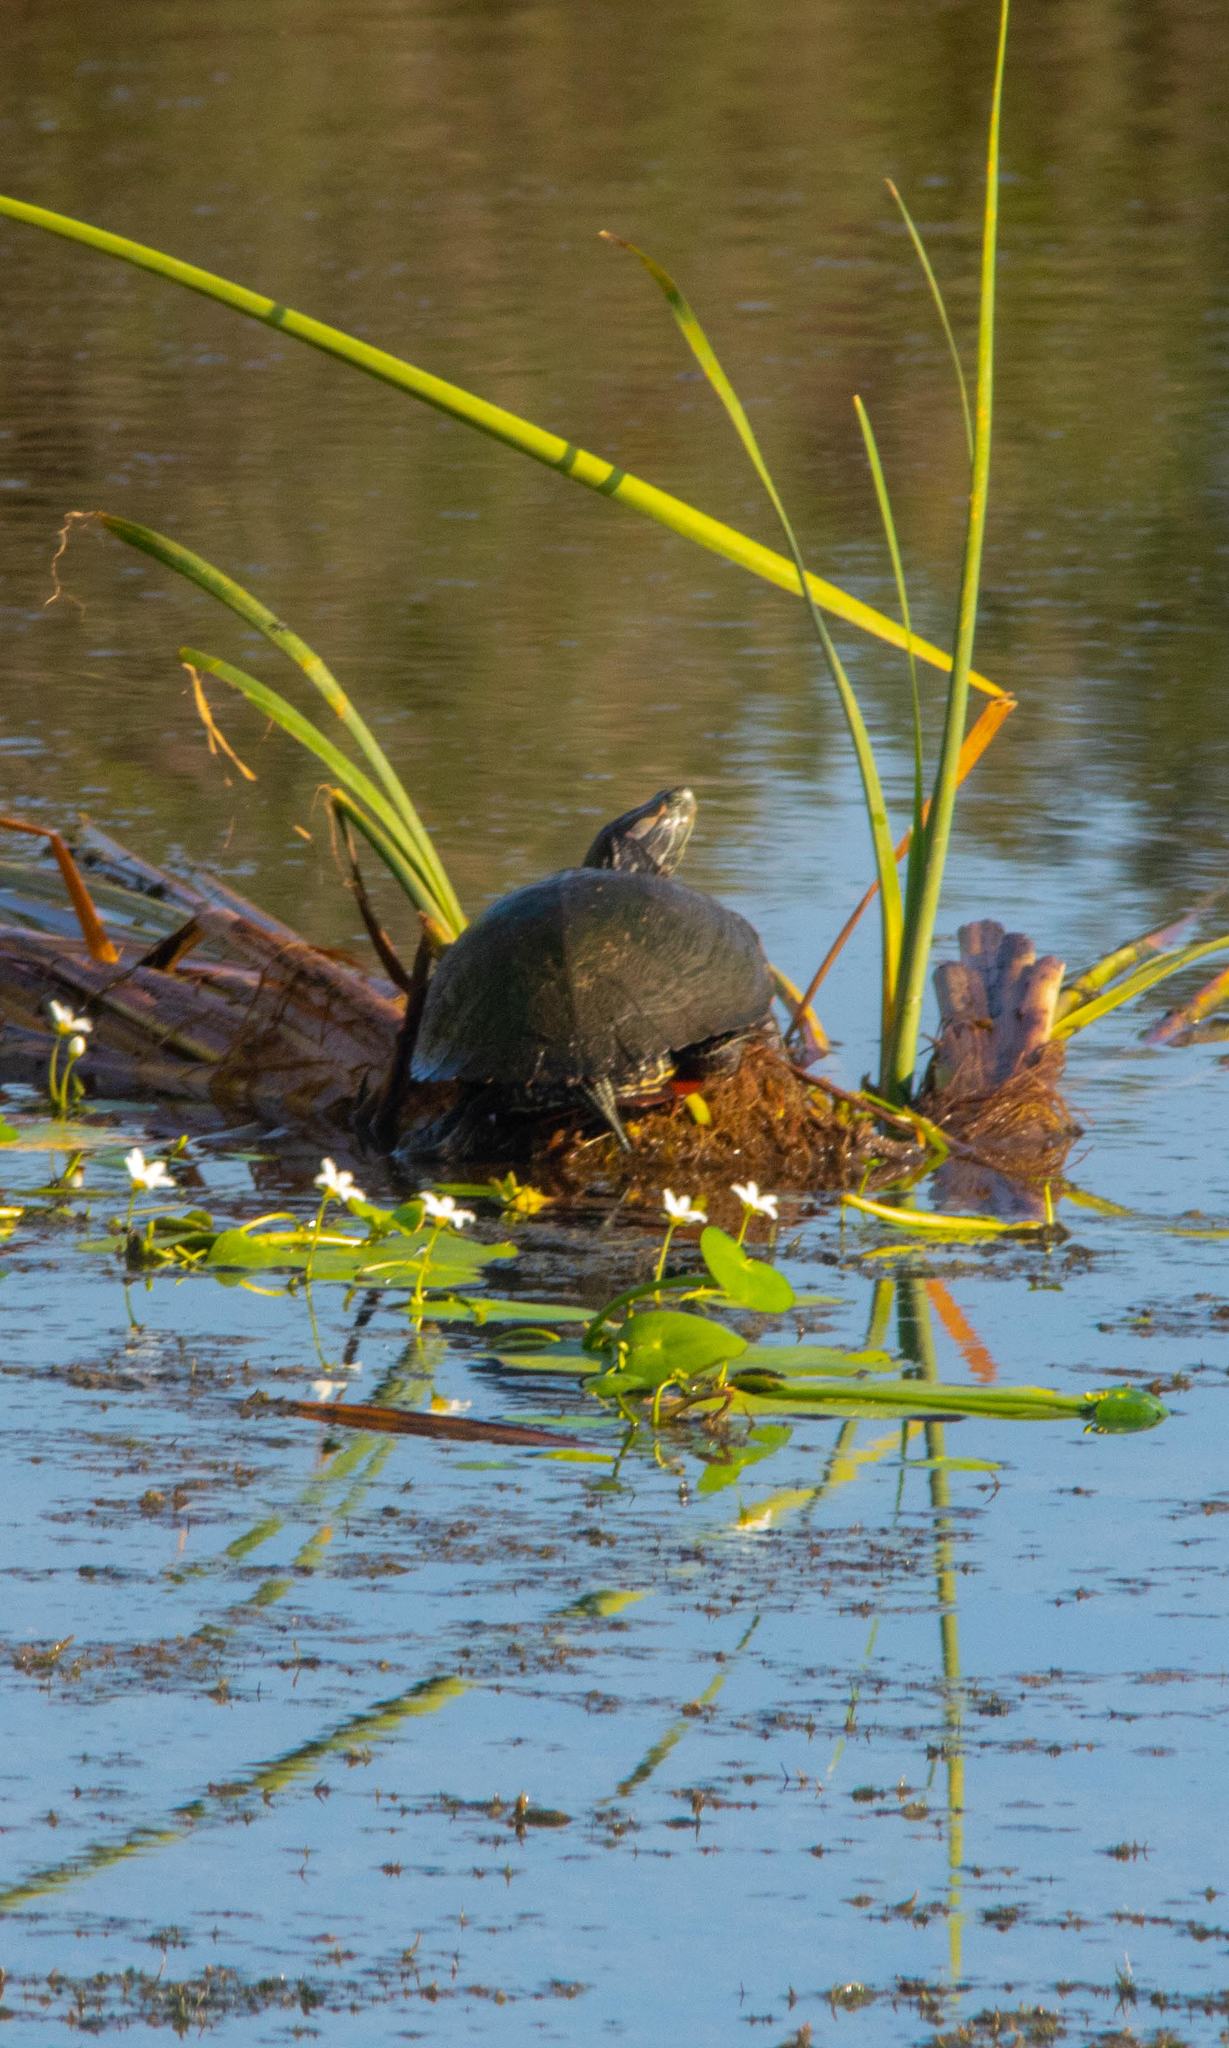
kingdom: Animalia
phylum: Chordata
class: Testudines
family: Emydidae
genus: Trachemys
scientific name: Trachemys scripta
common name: Slider
